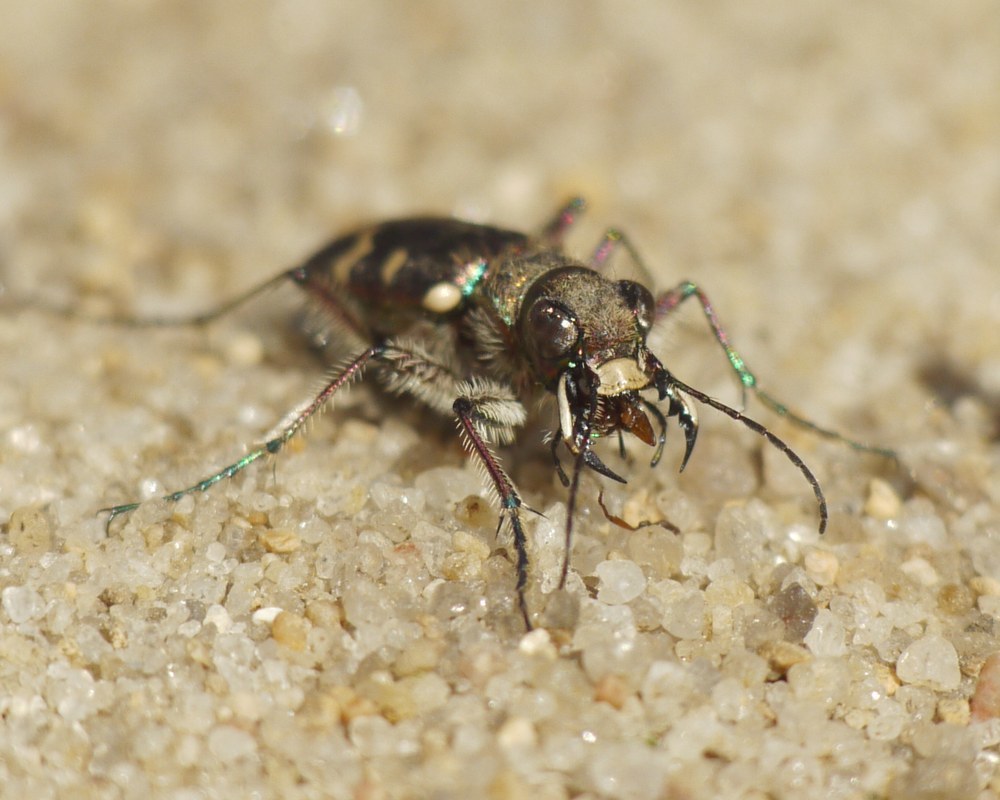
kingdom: Animalia
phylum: Arthropoda
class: Insecta
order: Coleoptera
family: Carabidae
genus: Cicindela
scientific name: Cicindela soluta
